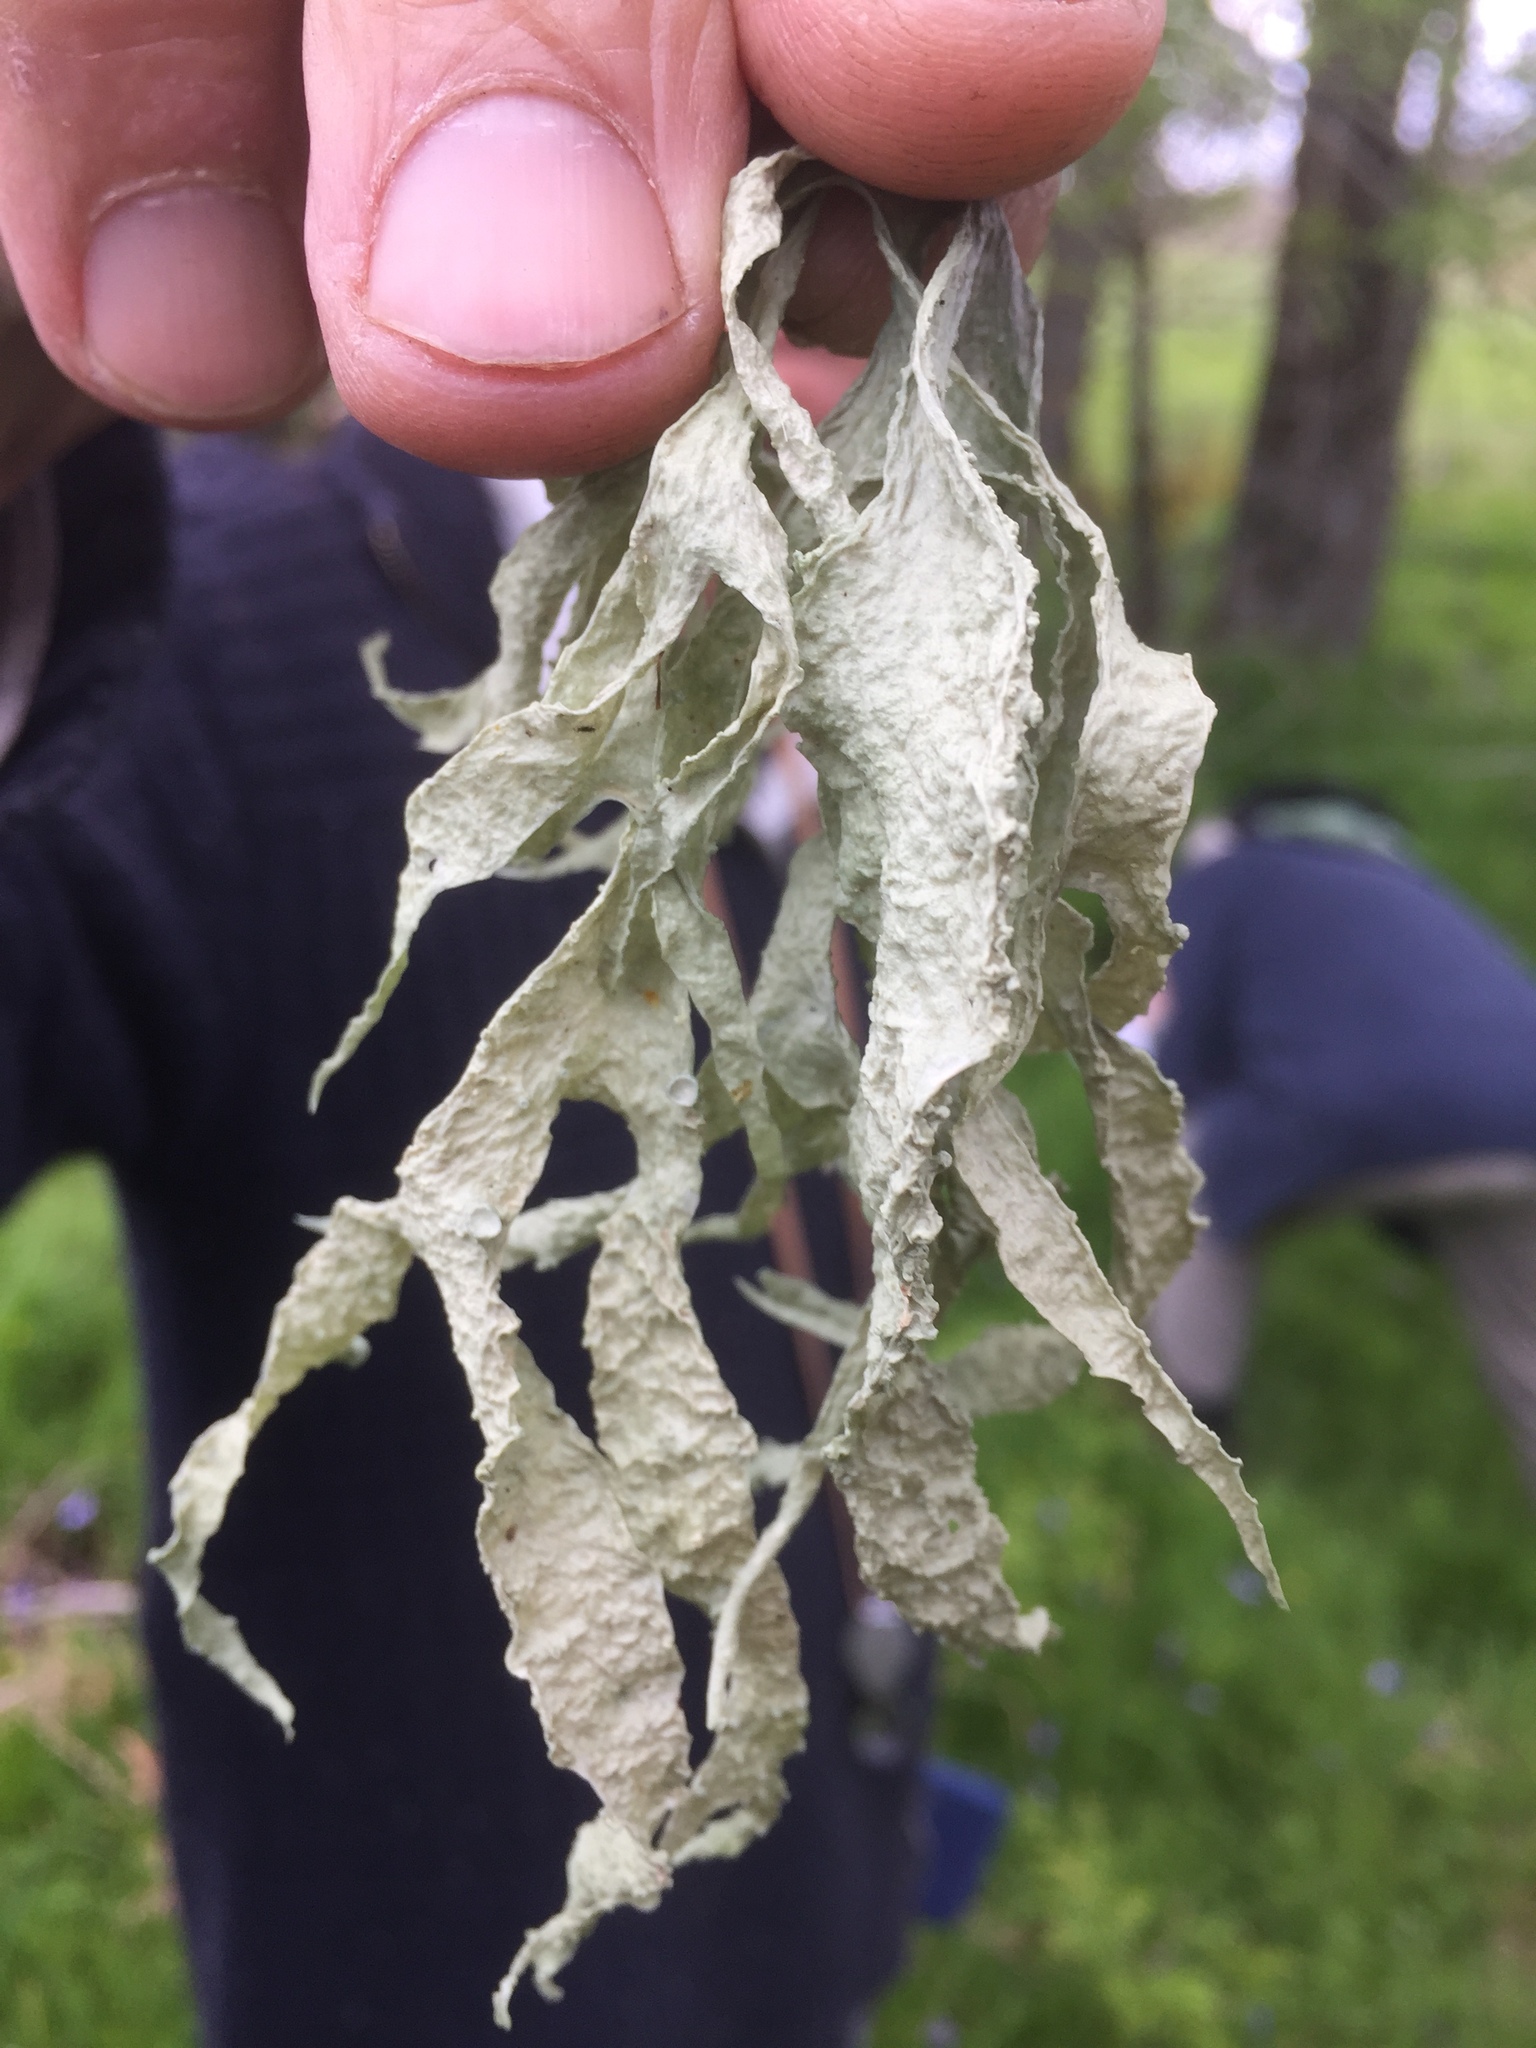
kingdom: Fungi
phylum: Ascomycota
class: Lecanoromycetes
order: Lecanorales
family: Ramalinaceae
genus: Ramalina
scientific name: Ramalina fraxinea
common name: Cartilage lichen
